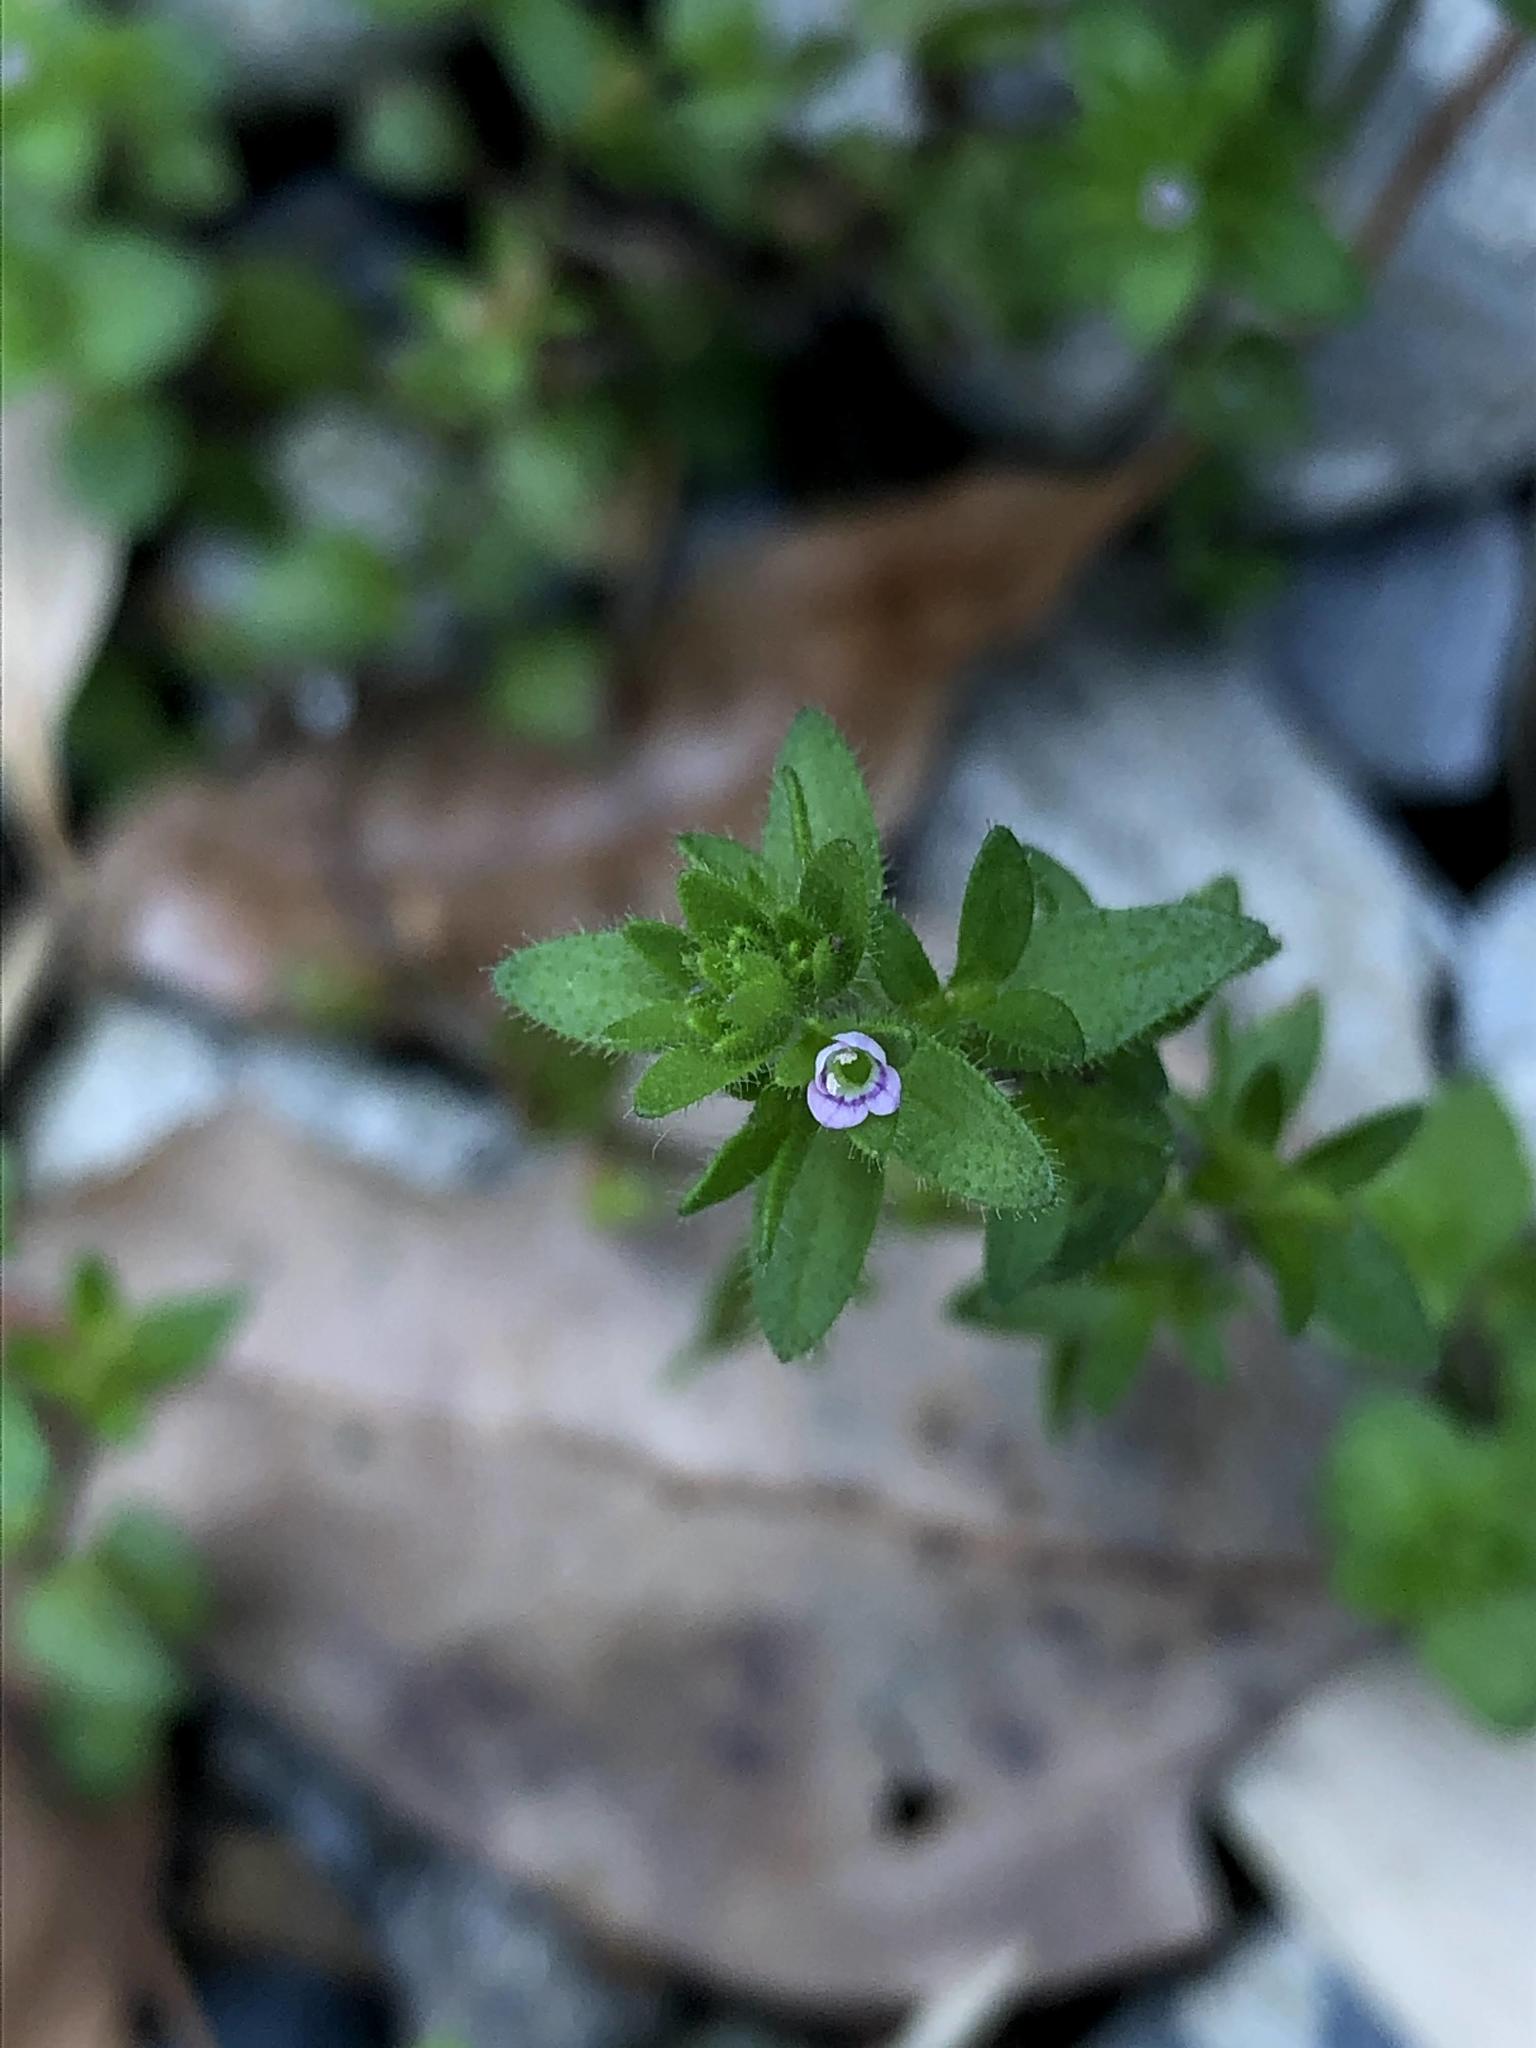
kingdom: Plantae
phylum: Tracheophyta
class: Magnoliopsida
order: Lamiales
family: Plantaginaceae
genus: Veronica
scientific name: Veronica arvensis
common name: Corn speedwell
